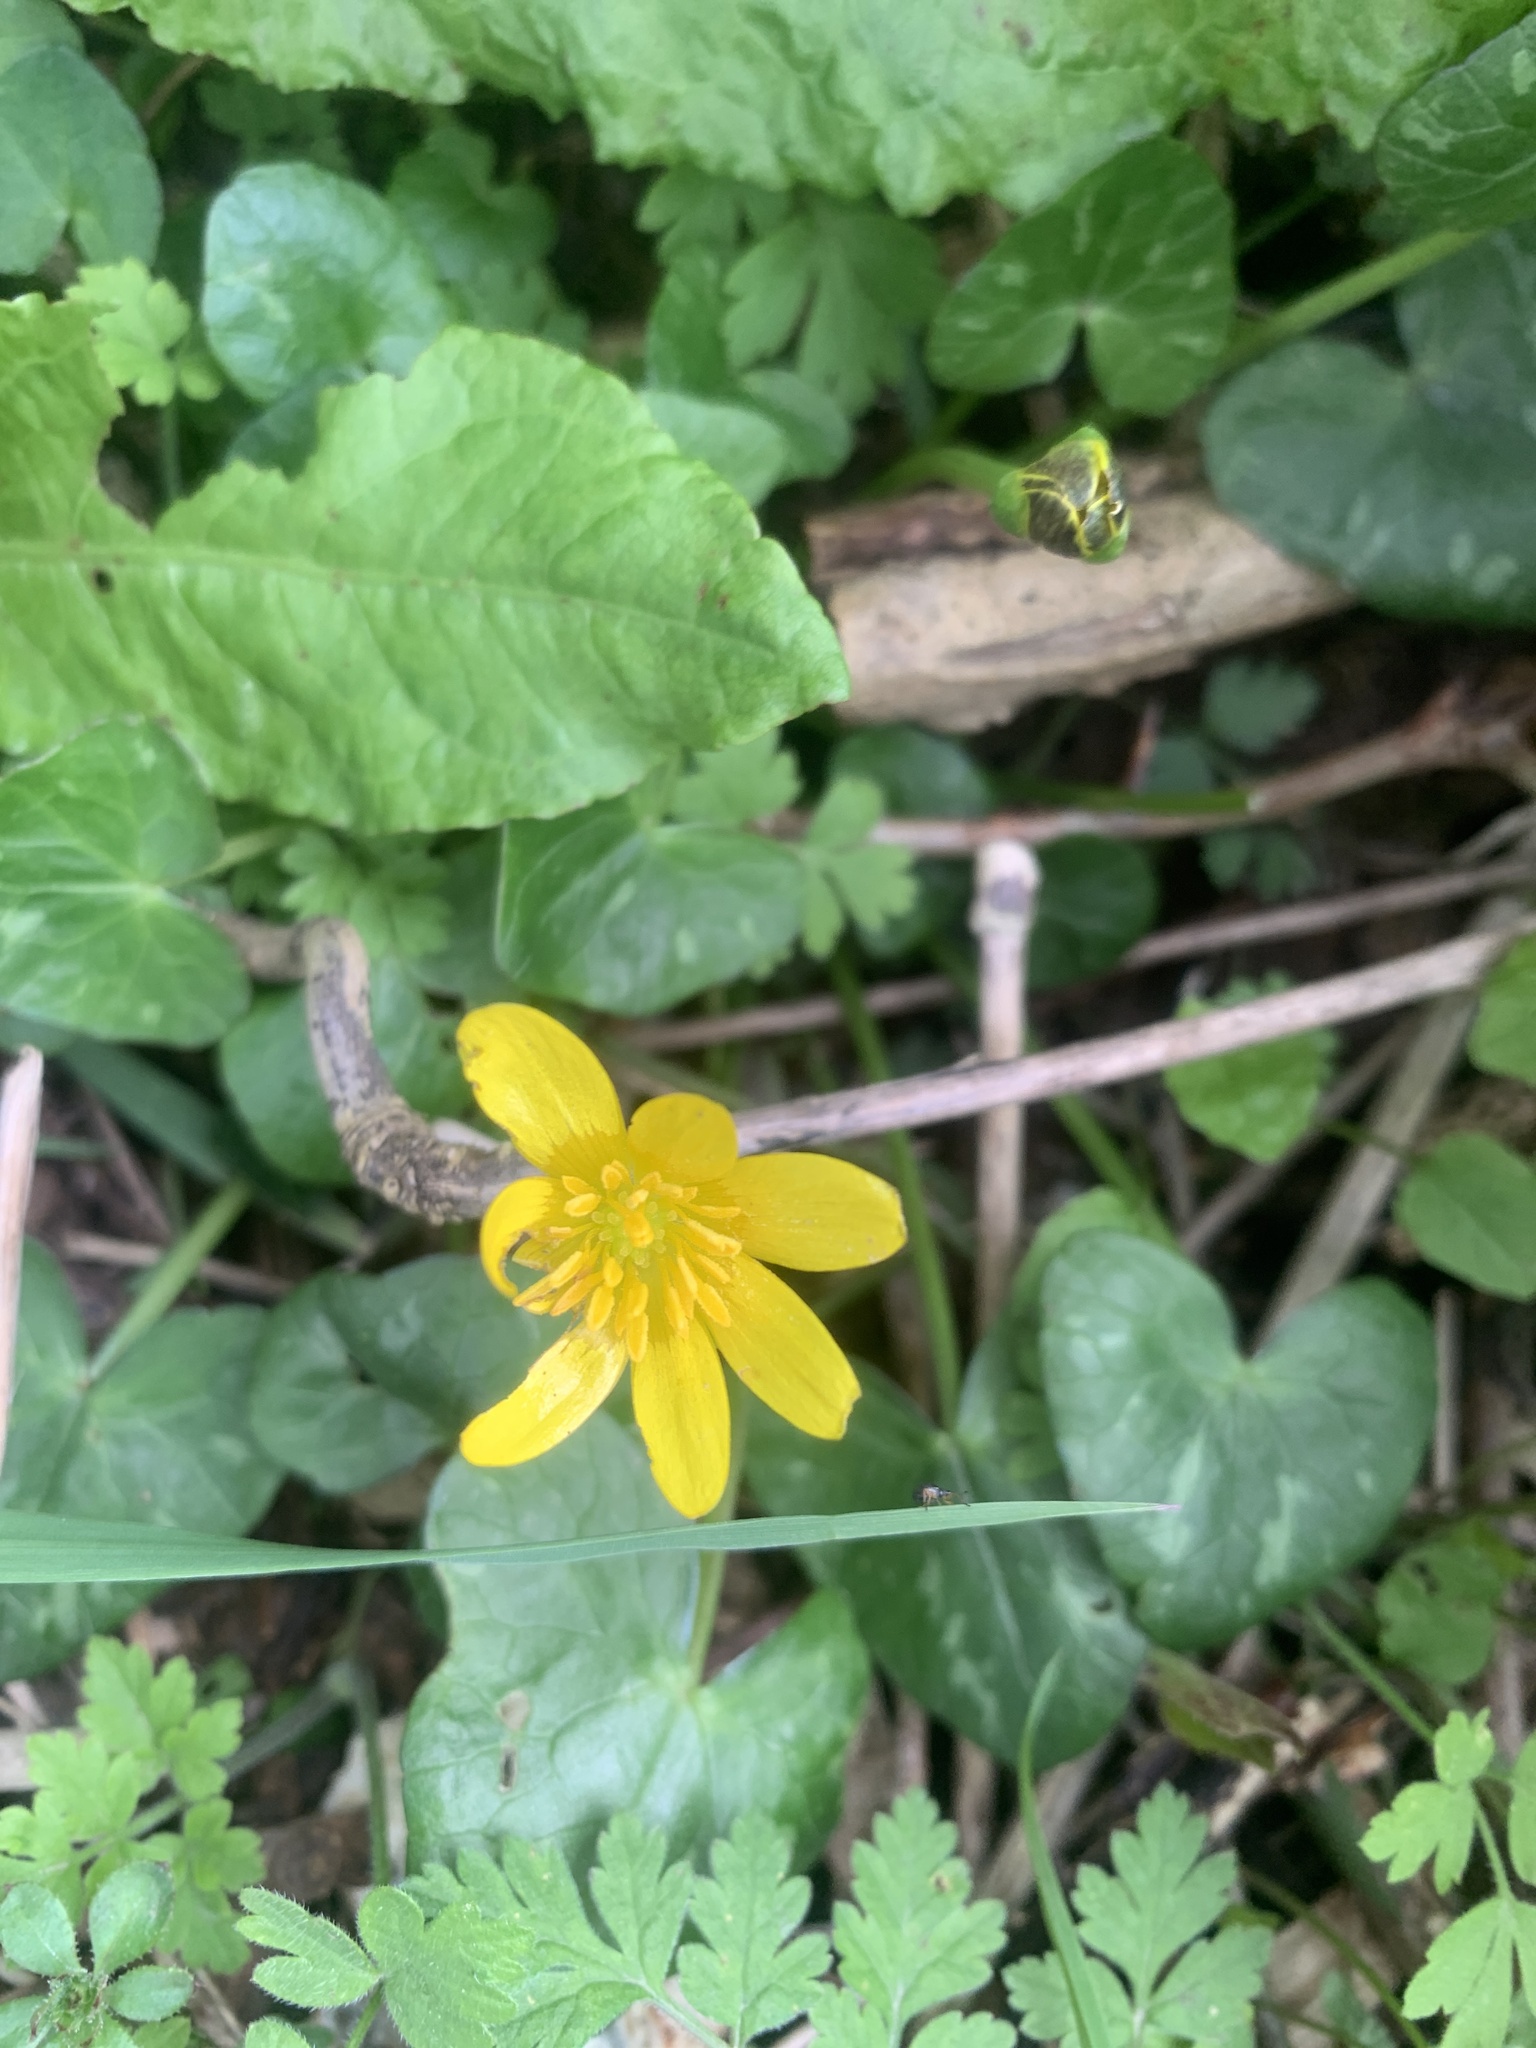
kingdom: Plantae
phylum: Tracheophyta
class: Magnoliopsida
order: Ranunculales
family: Ranunculaceae
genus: Ficaria
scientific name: Ficaria verna
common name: Lesser celandine
